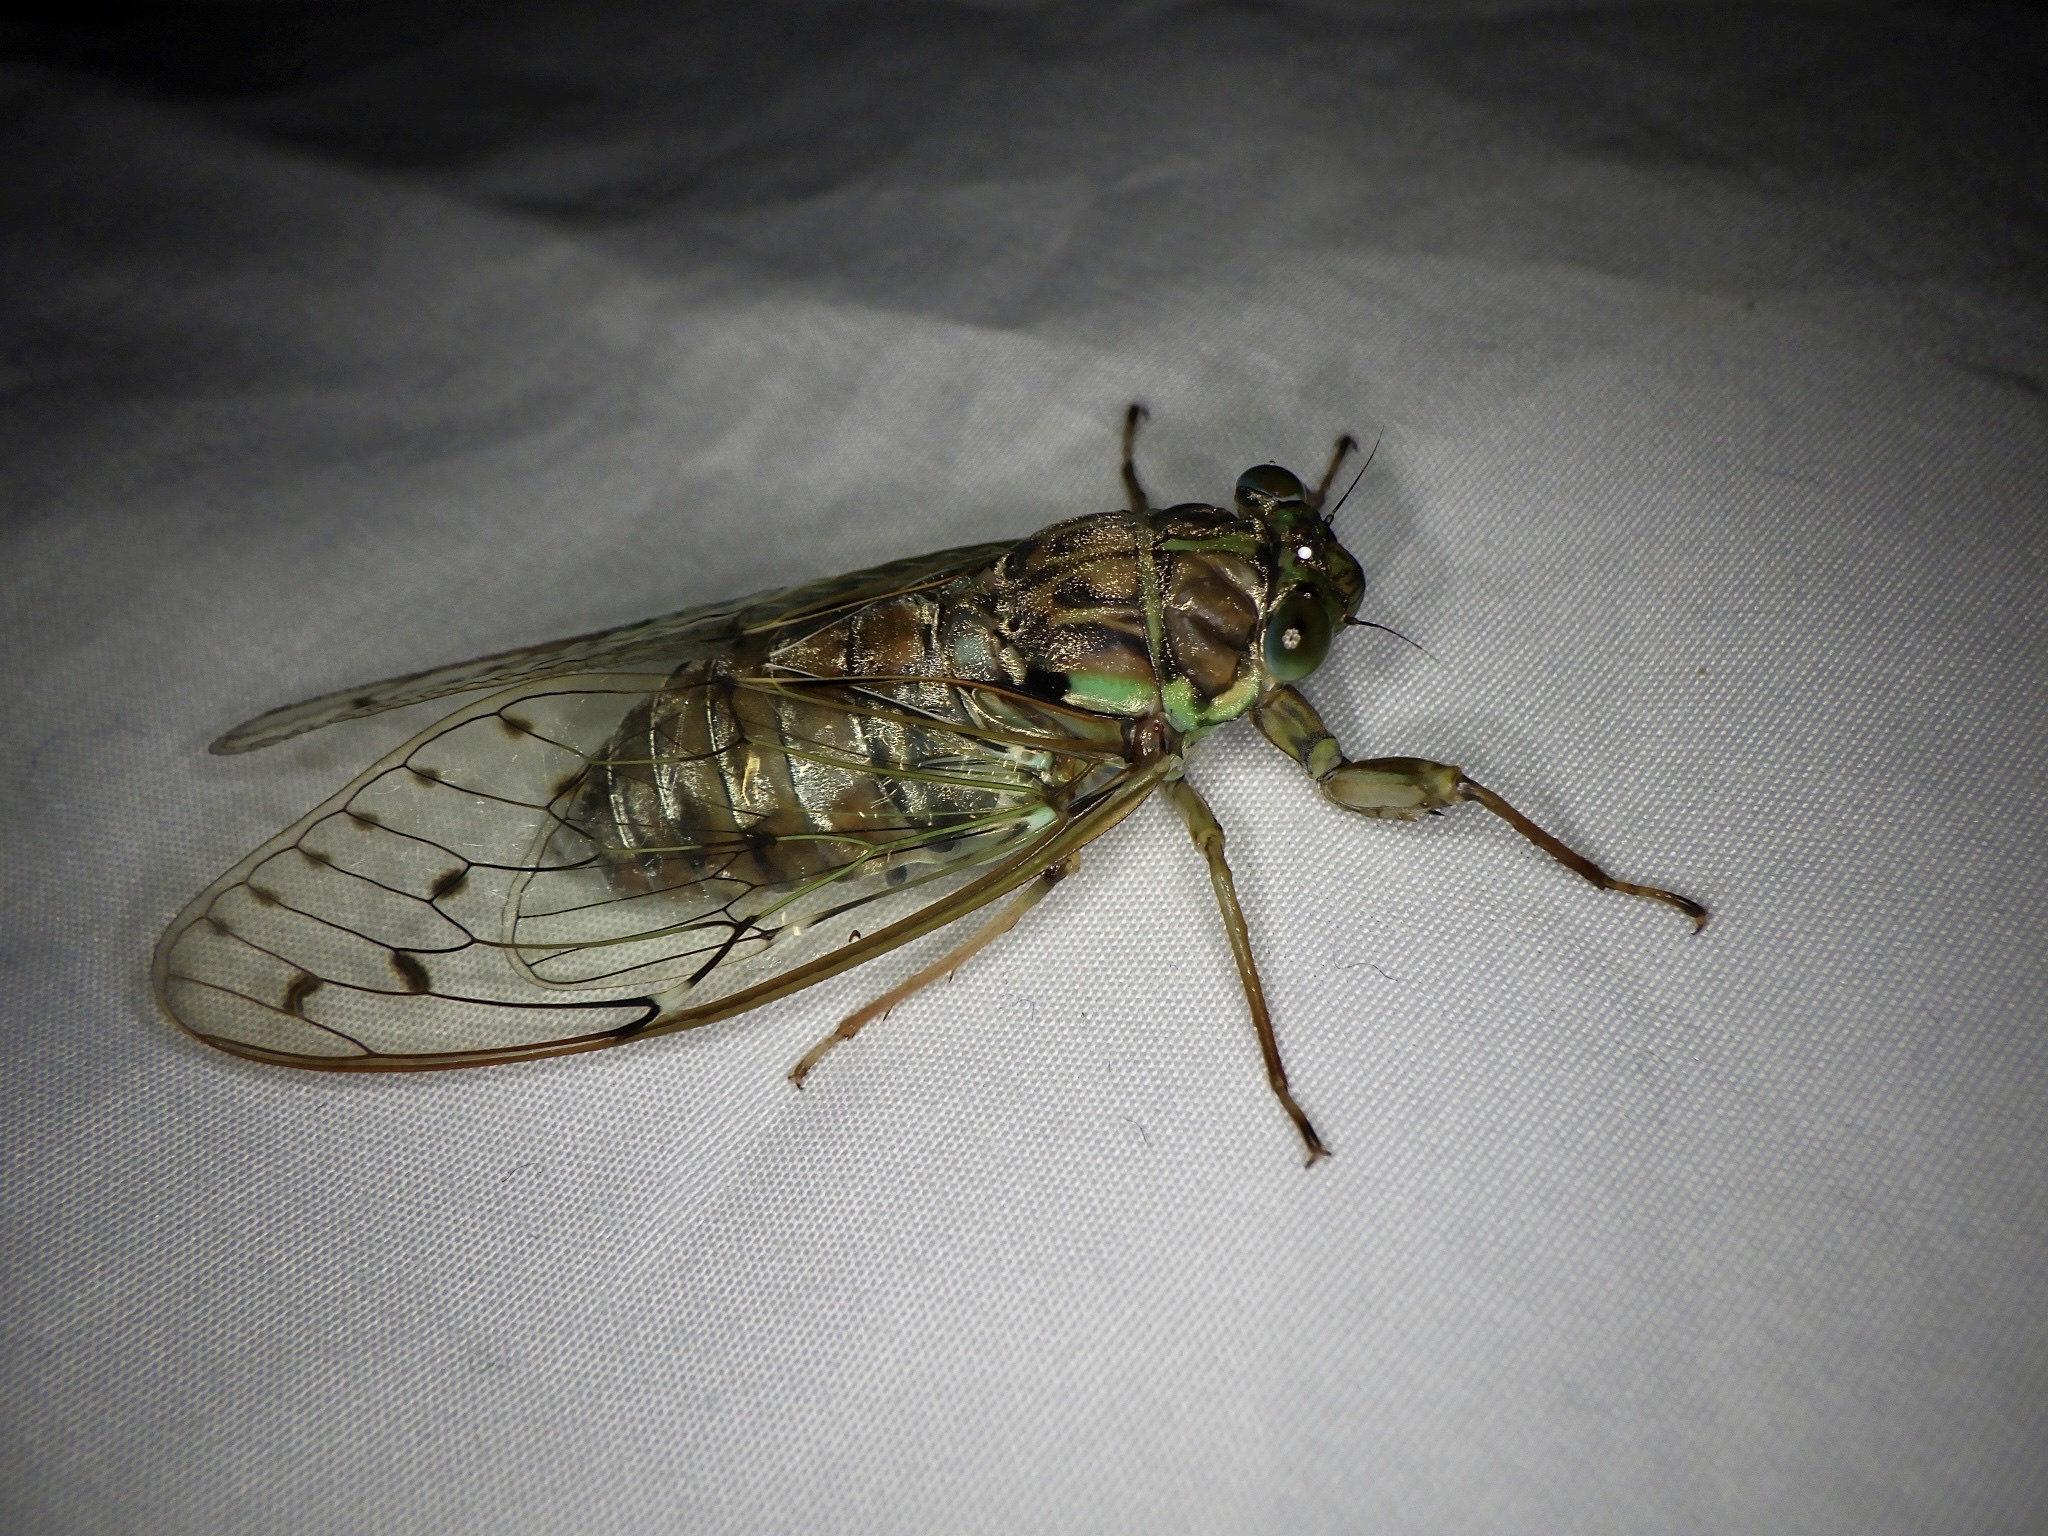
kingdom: Animalia
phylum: Arthropoda
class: Insecta
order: Hemiptera
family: Cicadidae
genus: Tanna
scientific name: Tanna japonensis
